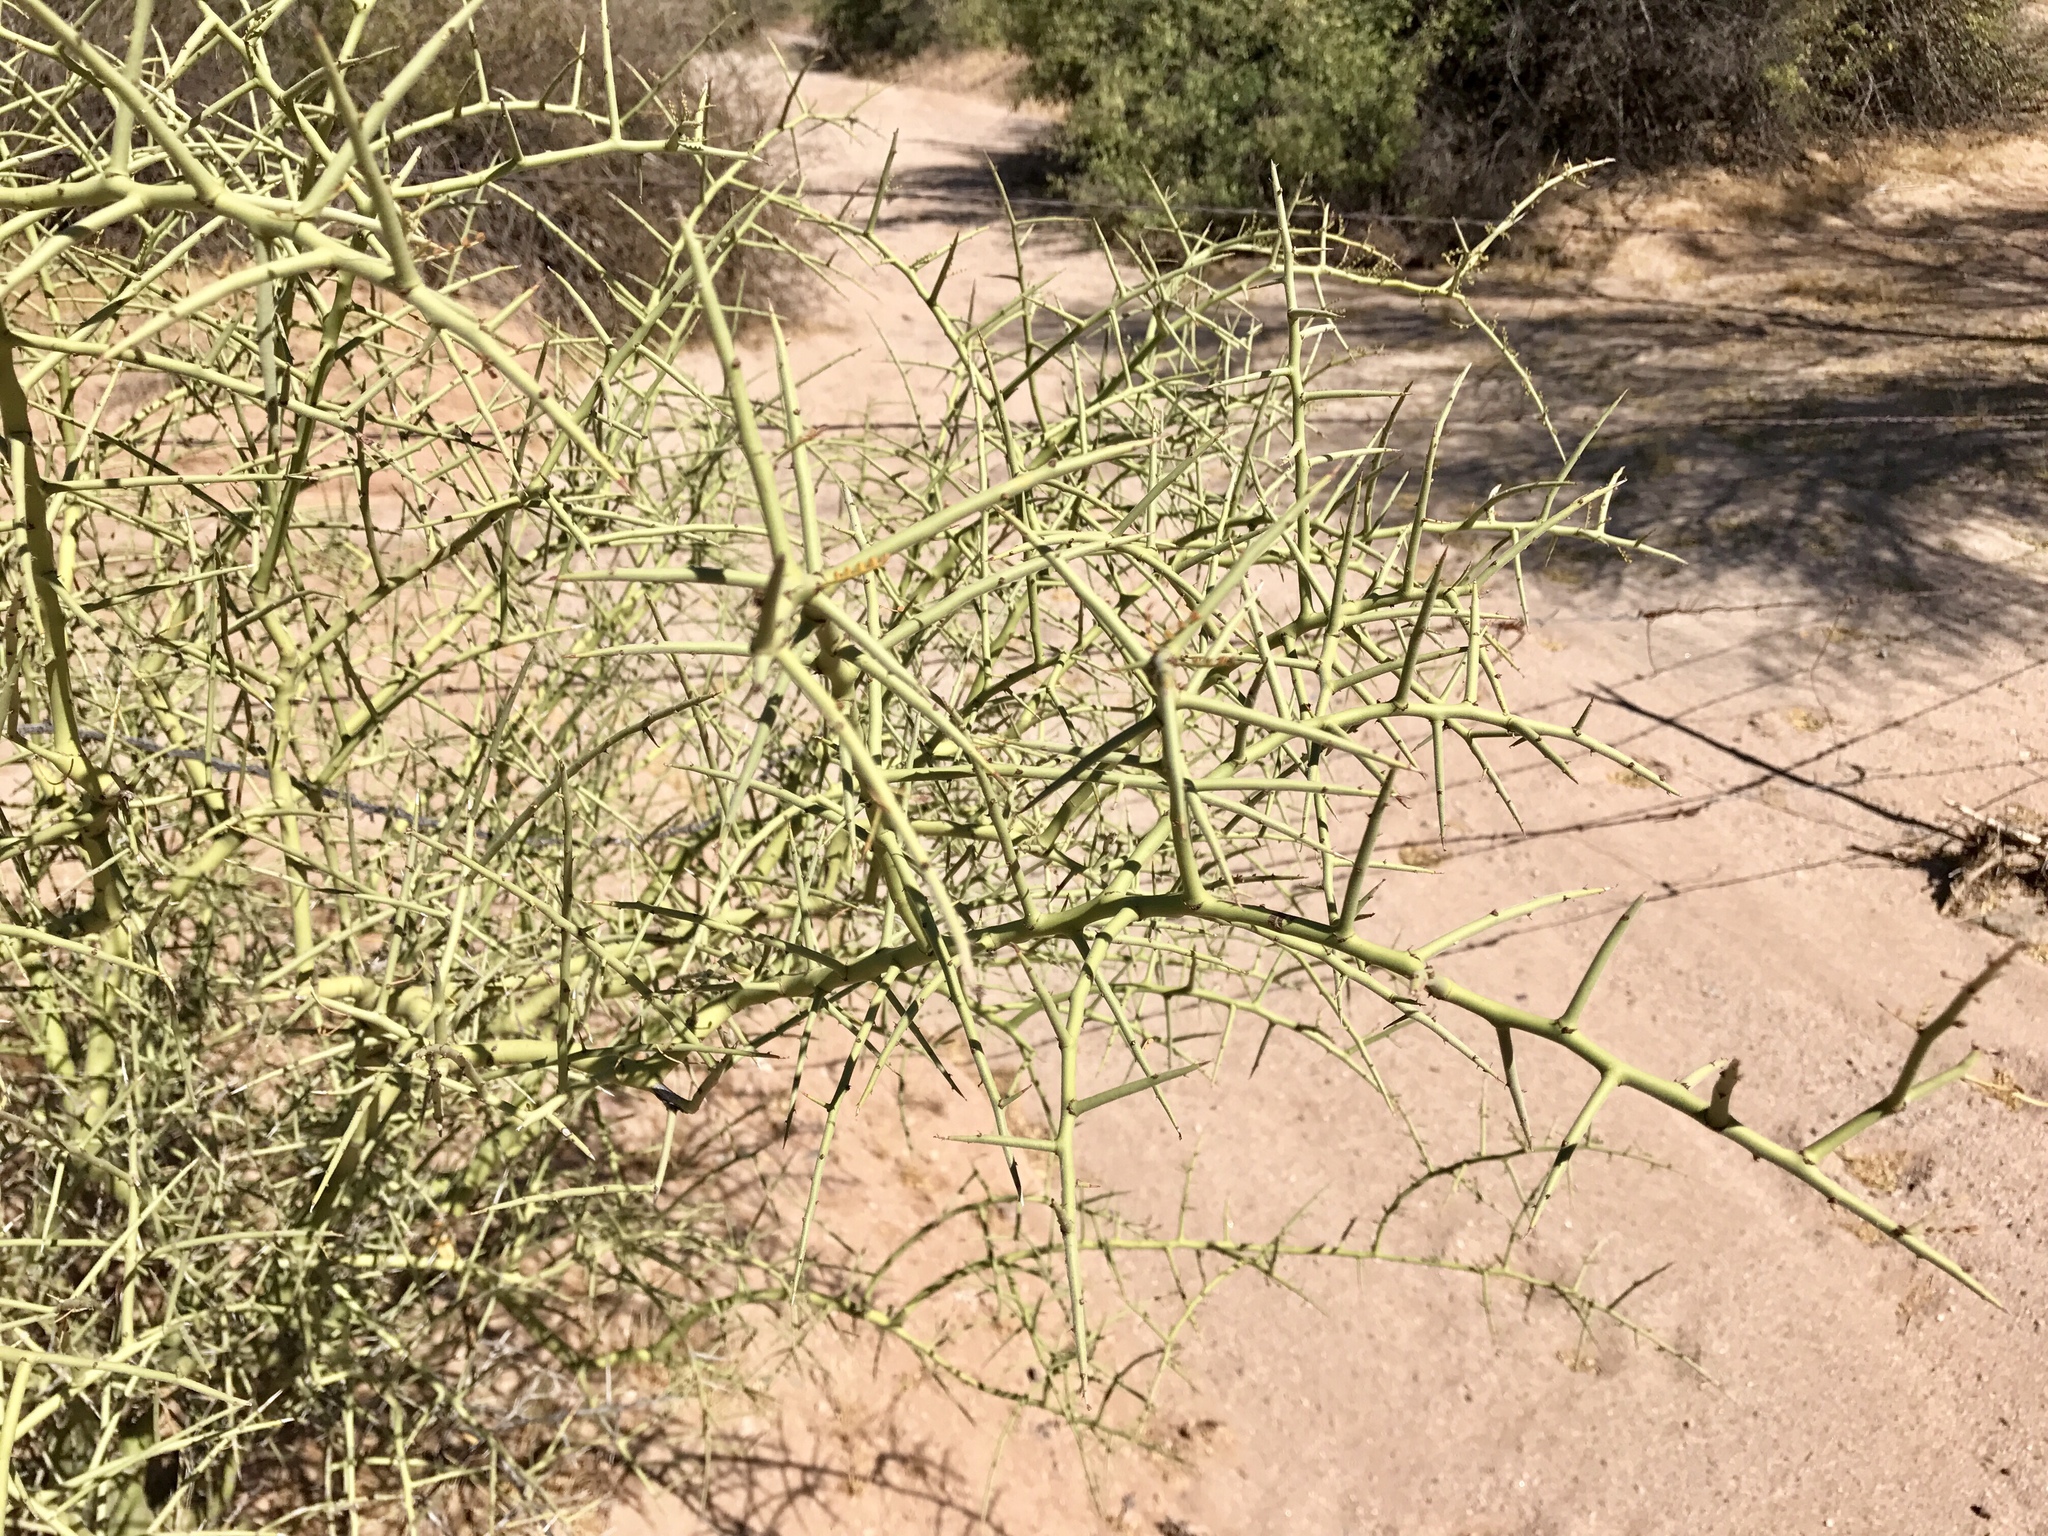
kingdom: Plantae
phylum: Tracheophyta
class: Magnoliopsida
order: Fabales
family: Fabaceae
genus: Parkinsonia
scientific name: Parkinsonia microphylla
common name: Yellow paloverde
